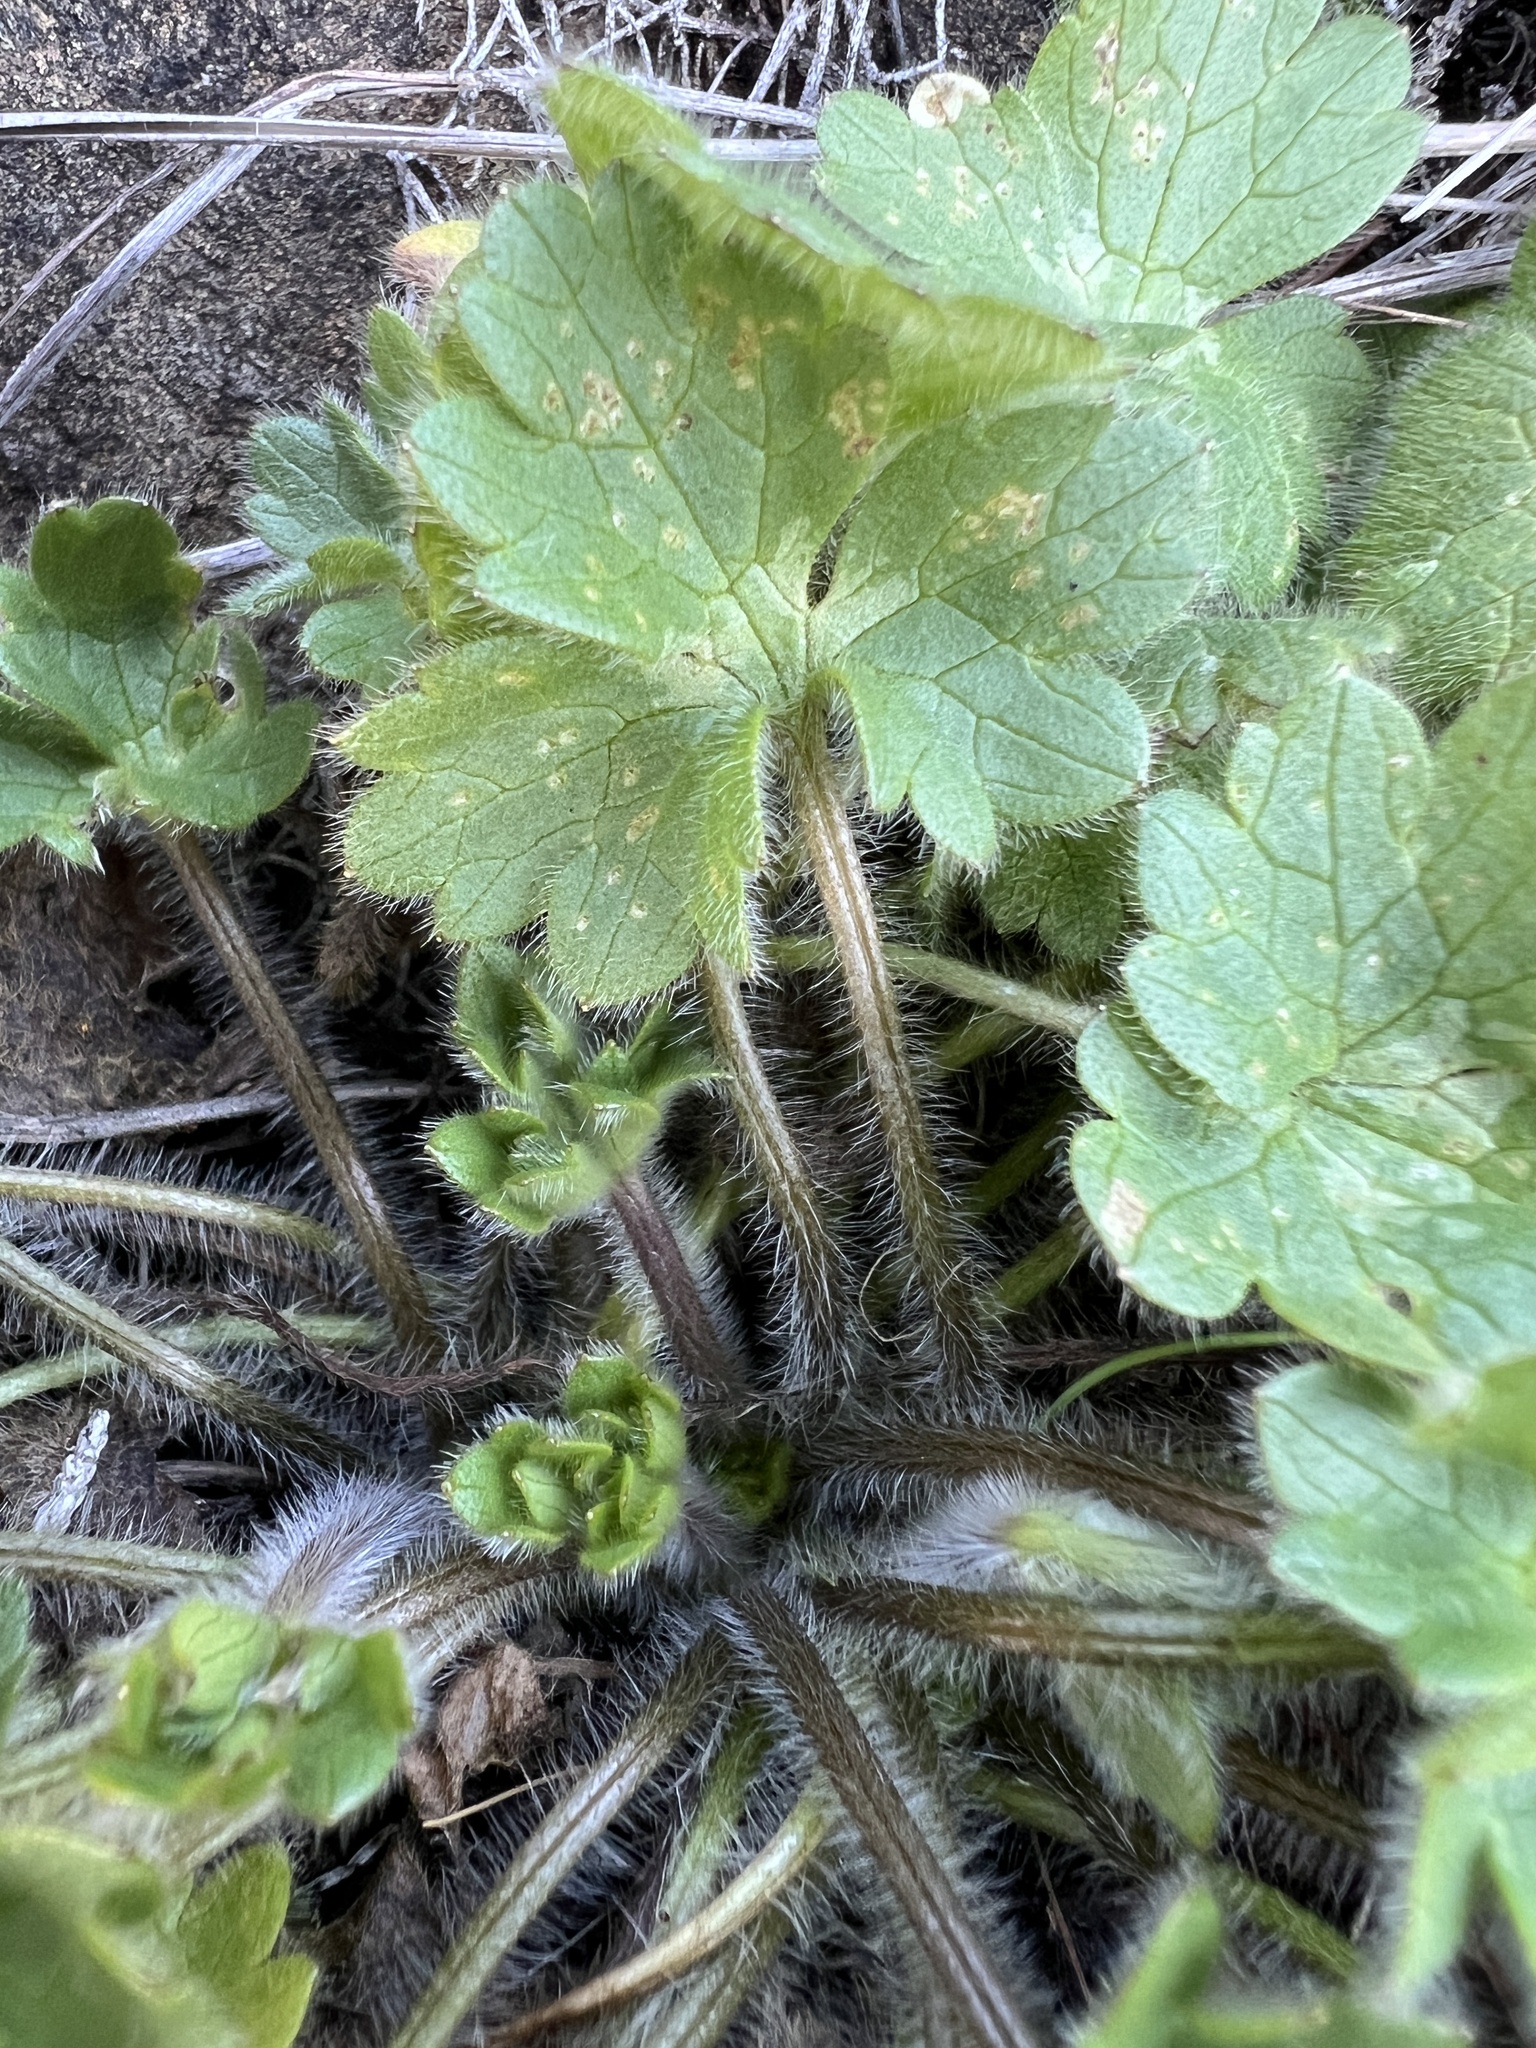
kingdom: Plantae
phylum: Tracheophyta
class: Magnoliopsida
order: Ranunculales
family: Ranunculaceae
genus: Ranunculus
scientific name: Ranunculus occidentalis
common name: Western buttercup
